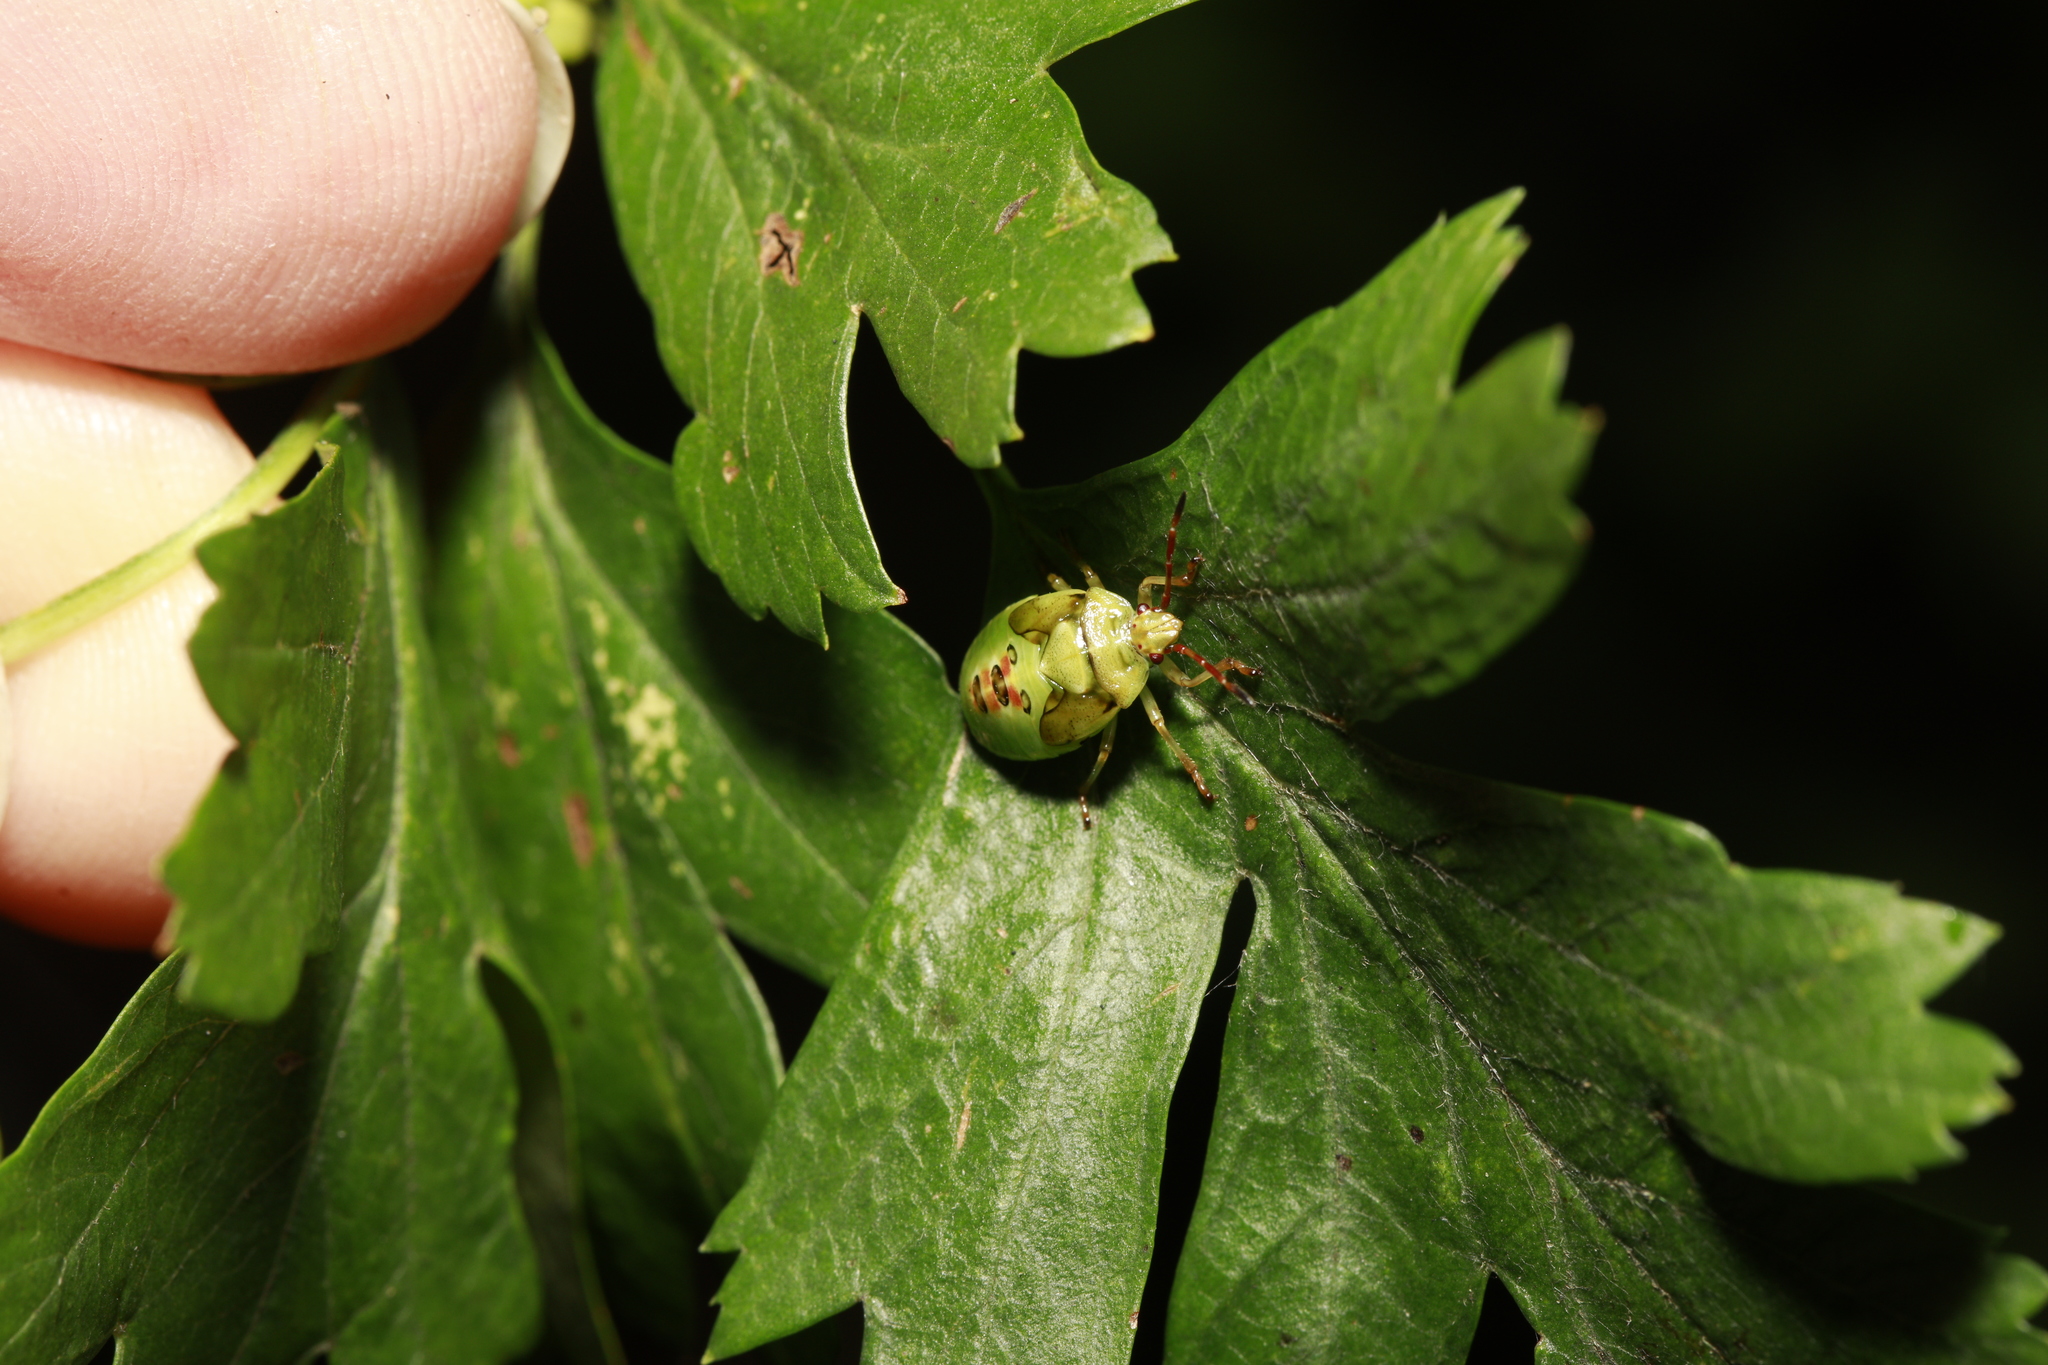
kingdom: Animalia
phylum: Arthropoda
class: Insecta
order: Hemiptera
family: Acanthosomatidae
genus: Elasmostethus
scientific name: Elasmostethus interstinctus
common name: Birch shieldbug
